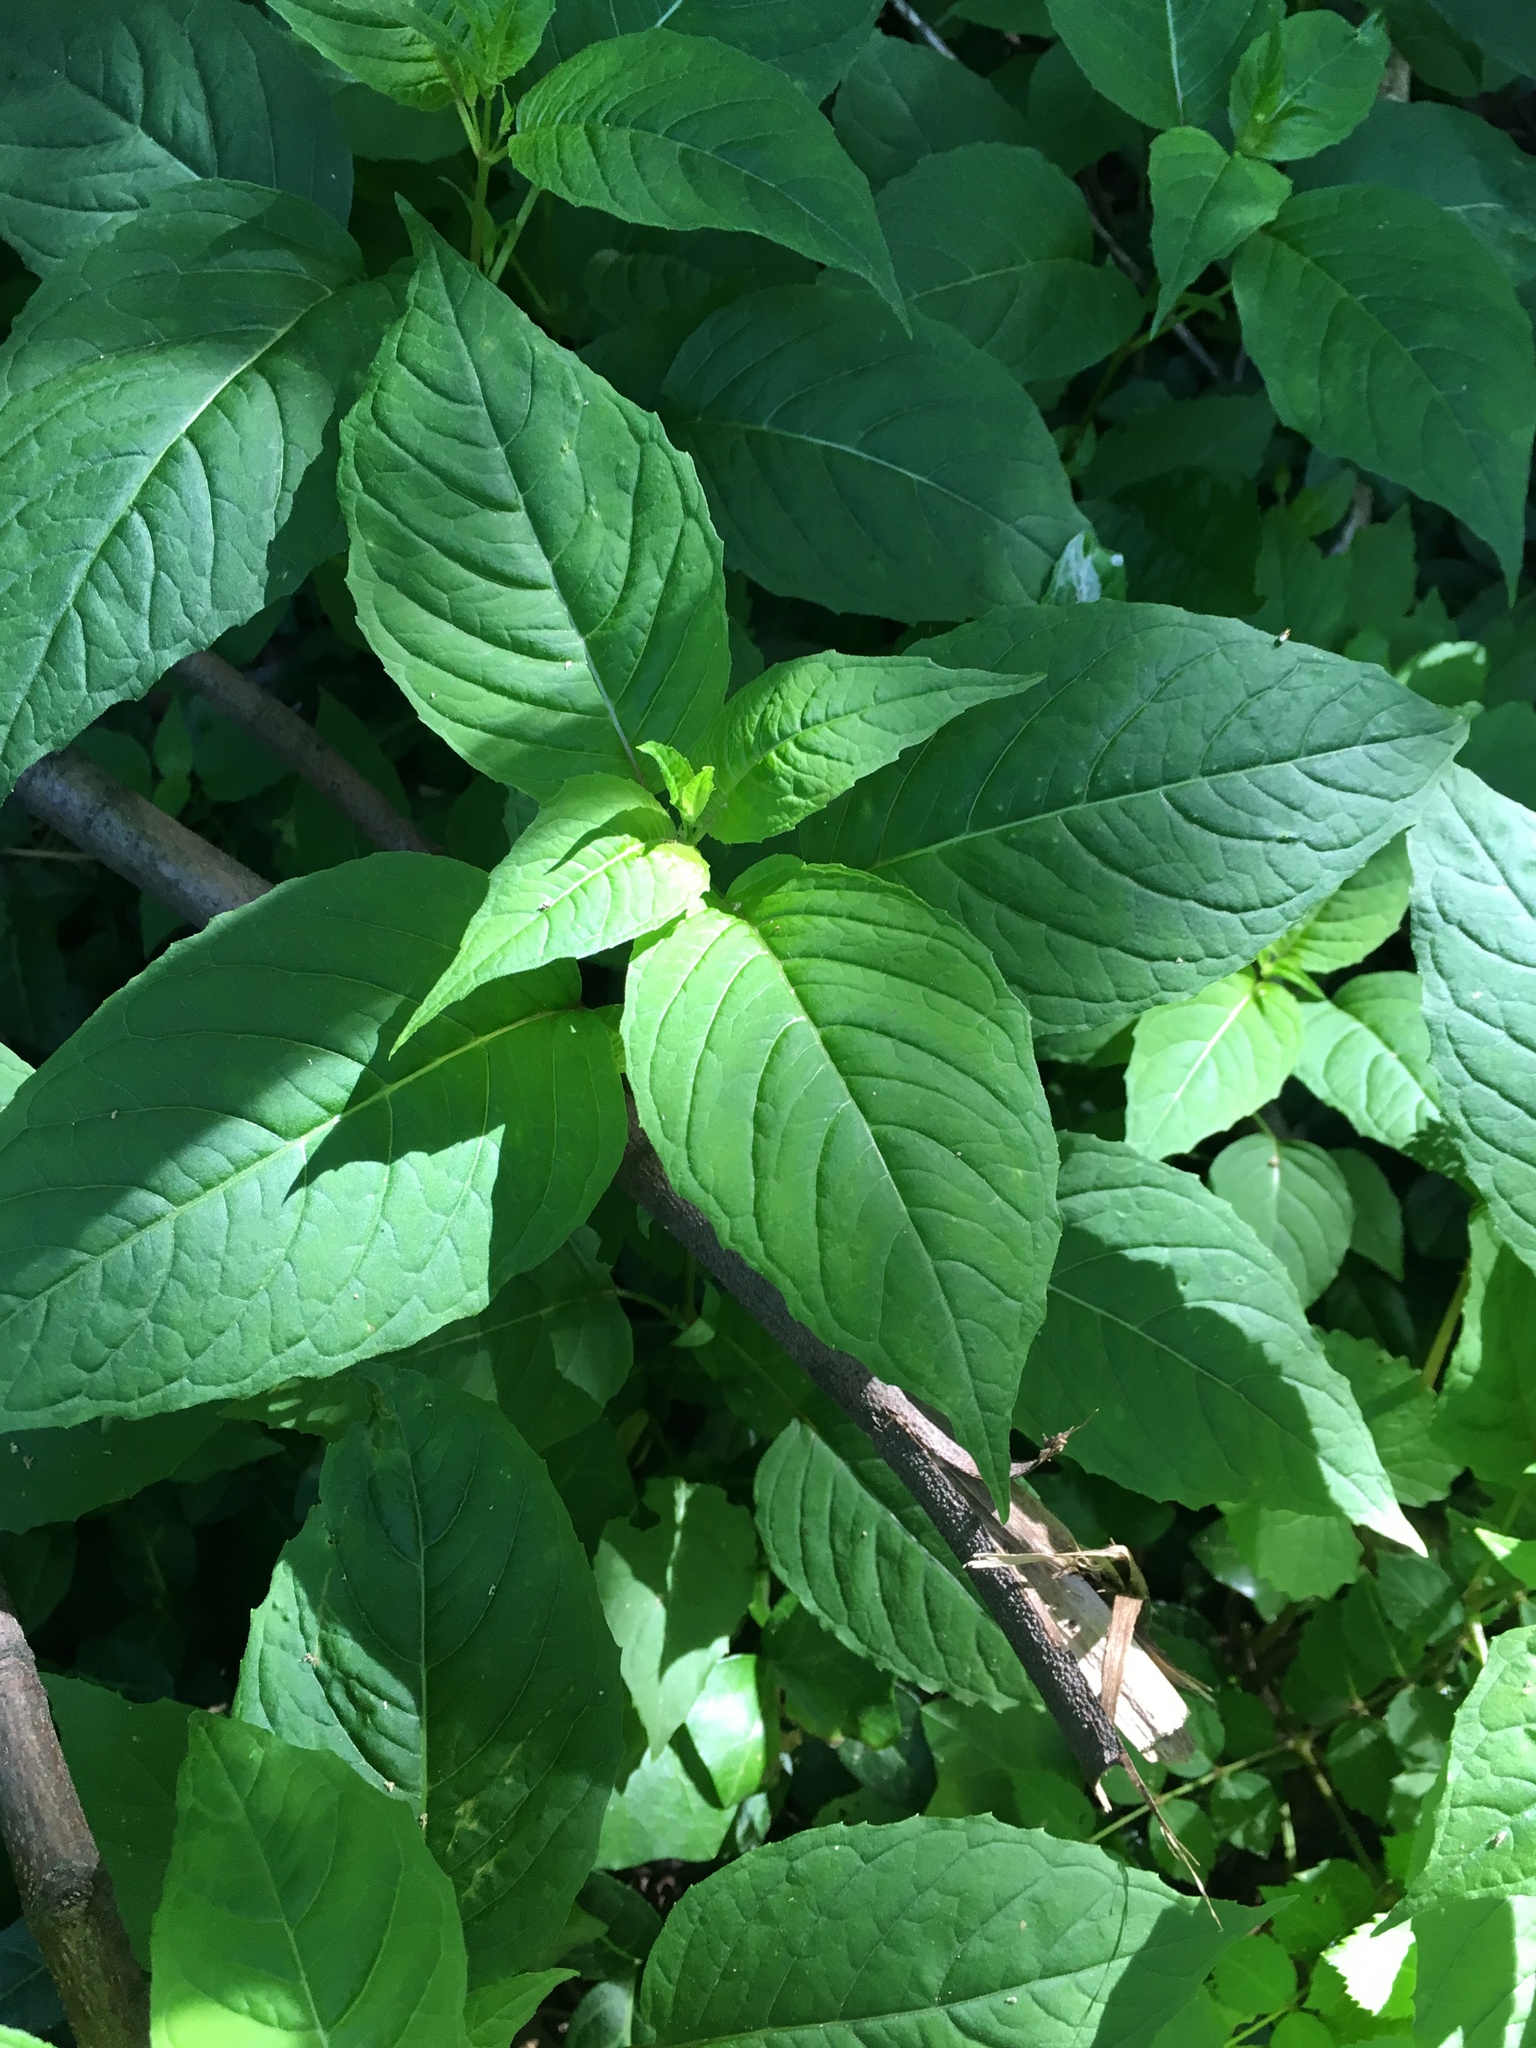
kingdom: Plantae
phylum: Tracheophyta
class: Magnoliopsida
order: Myrtales
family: Onagraceae
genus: Circaea
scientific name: Circaea canadensis
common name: Broad-leaved enchanter's nightshade
